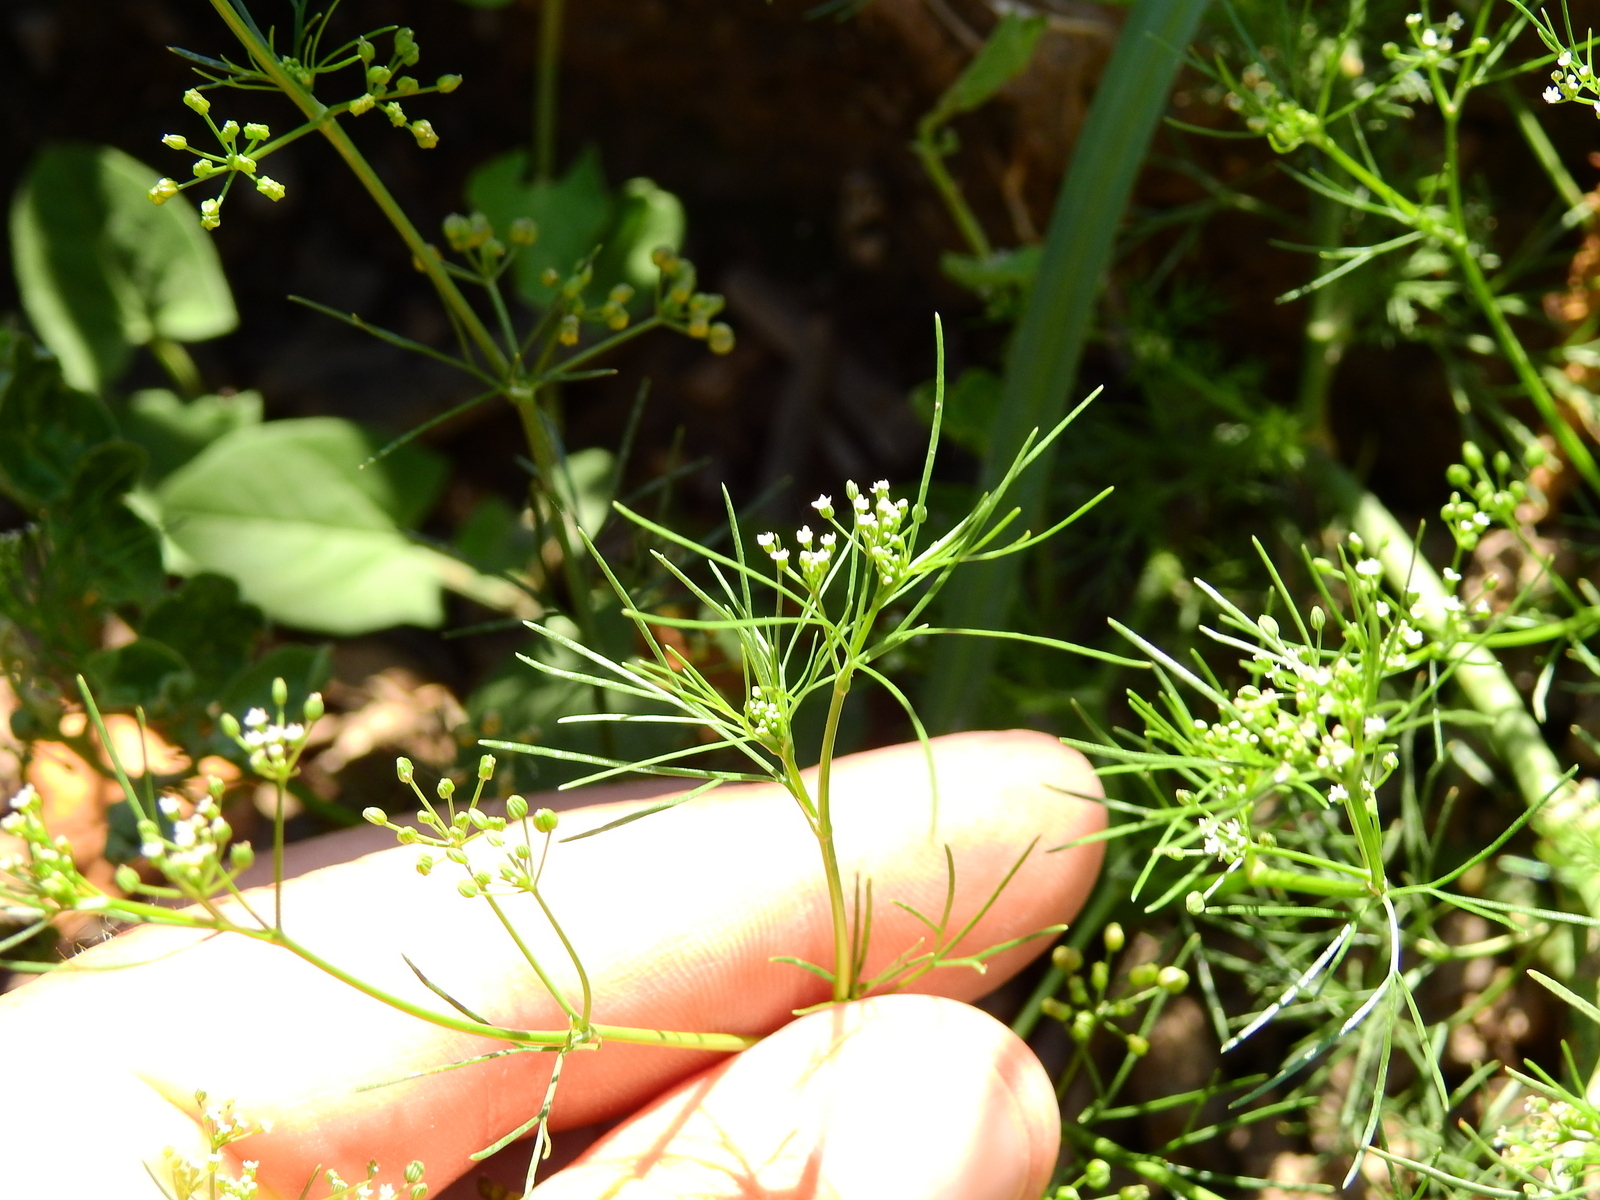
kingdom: Plantae
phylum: Tracheophyta
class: Magnoliopsida
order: Apiales
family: Apiaceae
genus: Cyclospermum
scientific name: Cyclospermum leptophyllum
